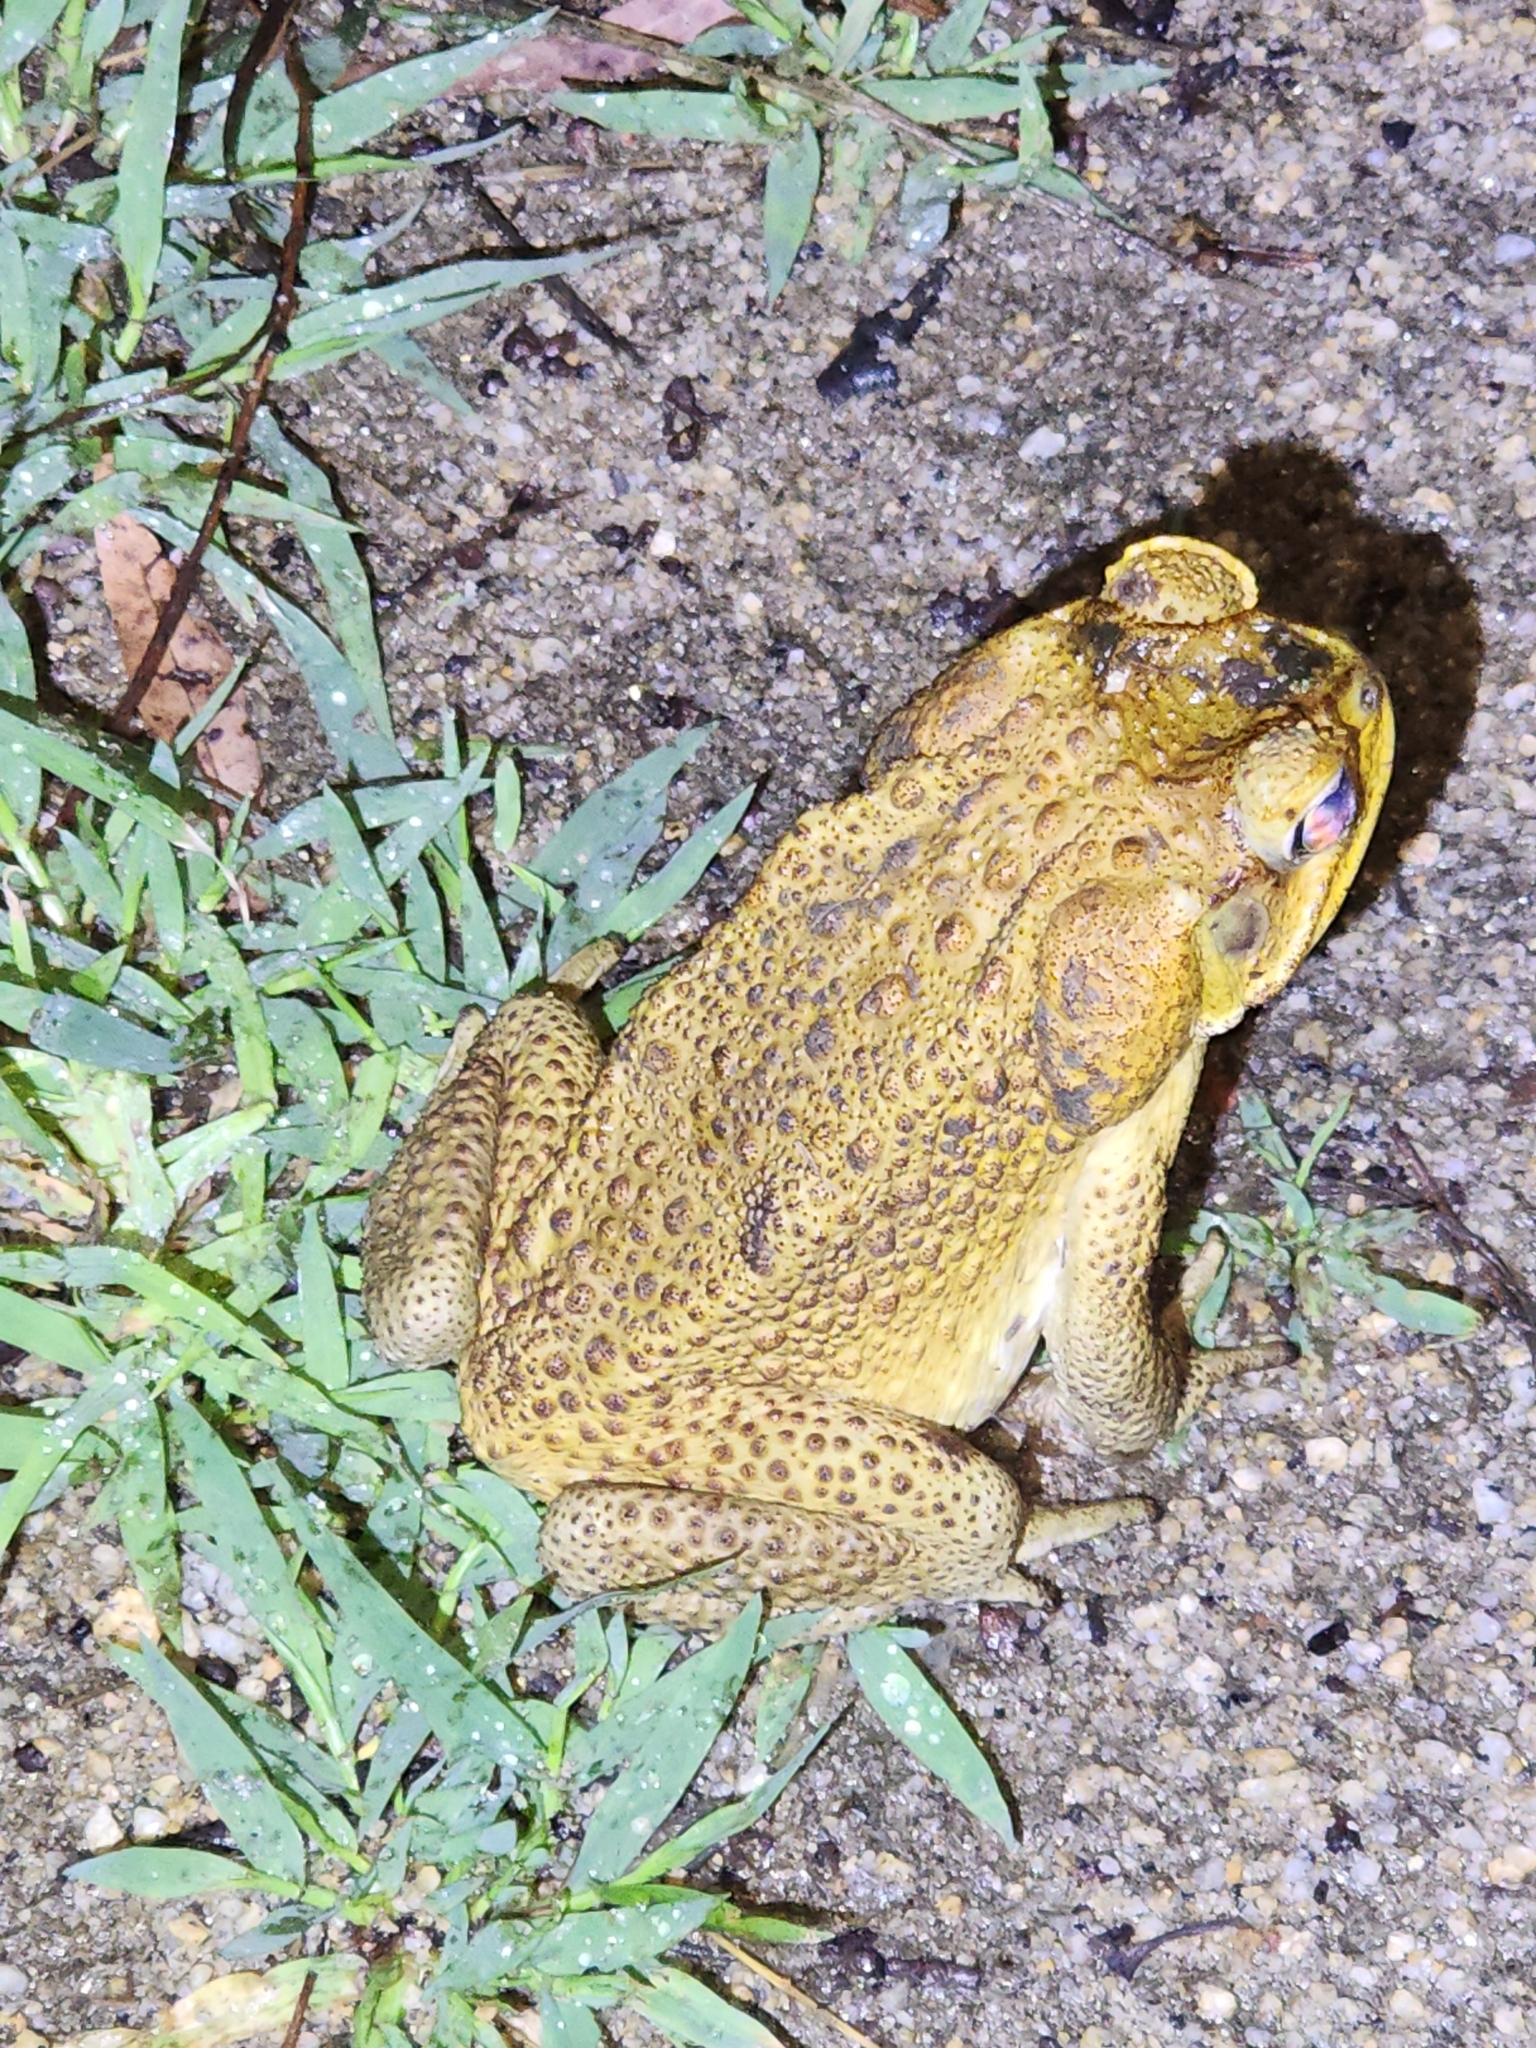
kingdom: Animalia
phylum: Chordata
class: Amphibia
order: Anura
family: Bufonidae
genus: Rhinella
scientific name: Rhinella marina
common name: Cane toad
